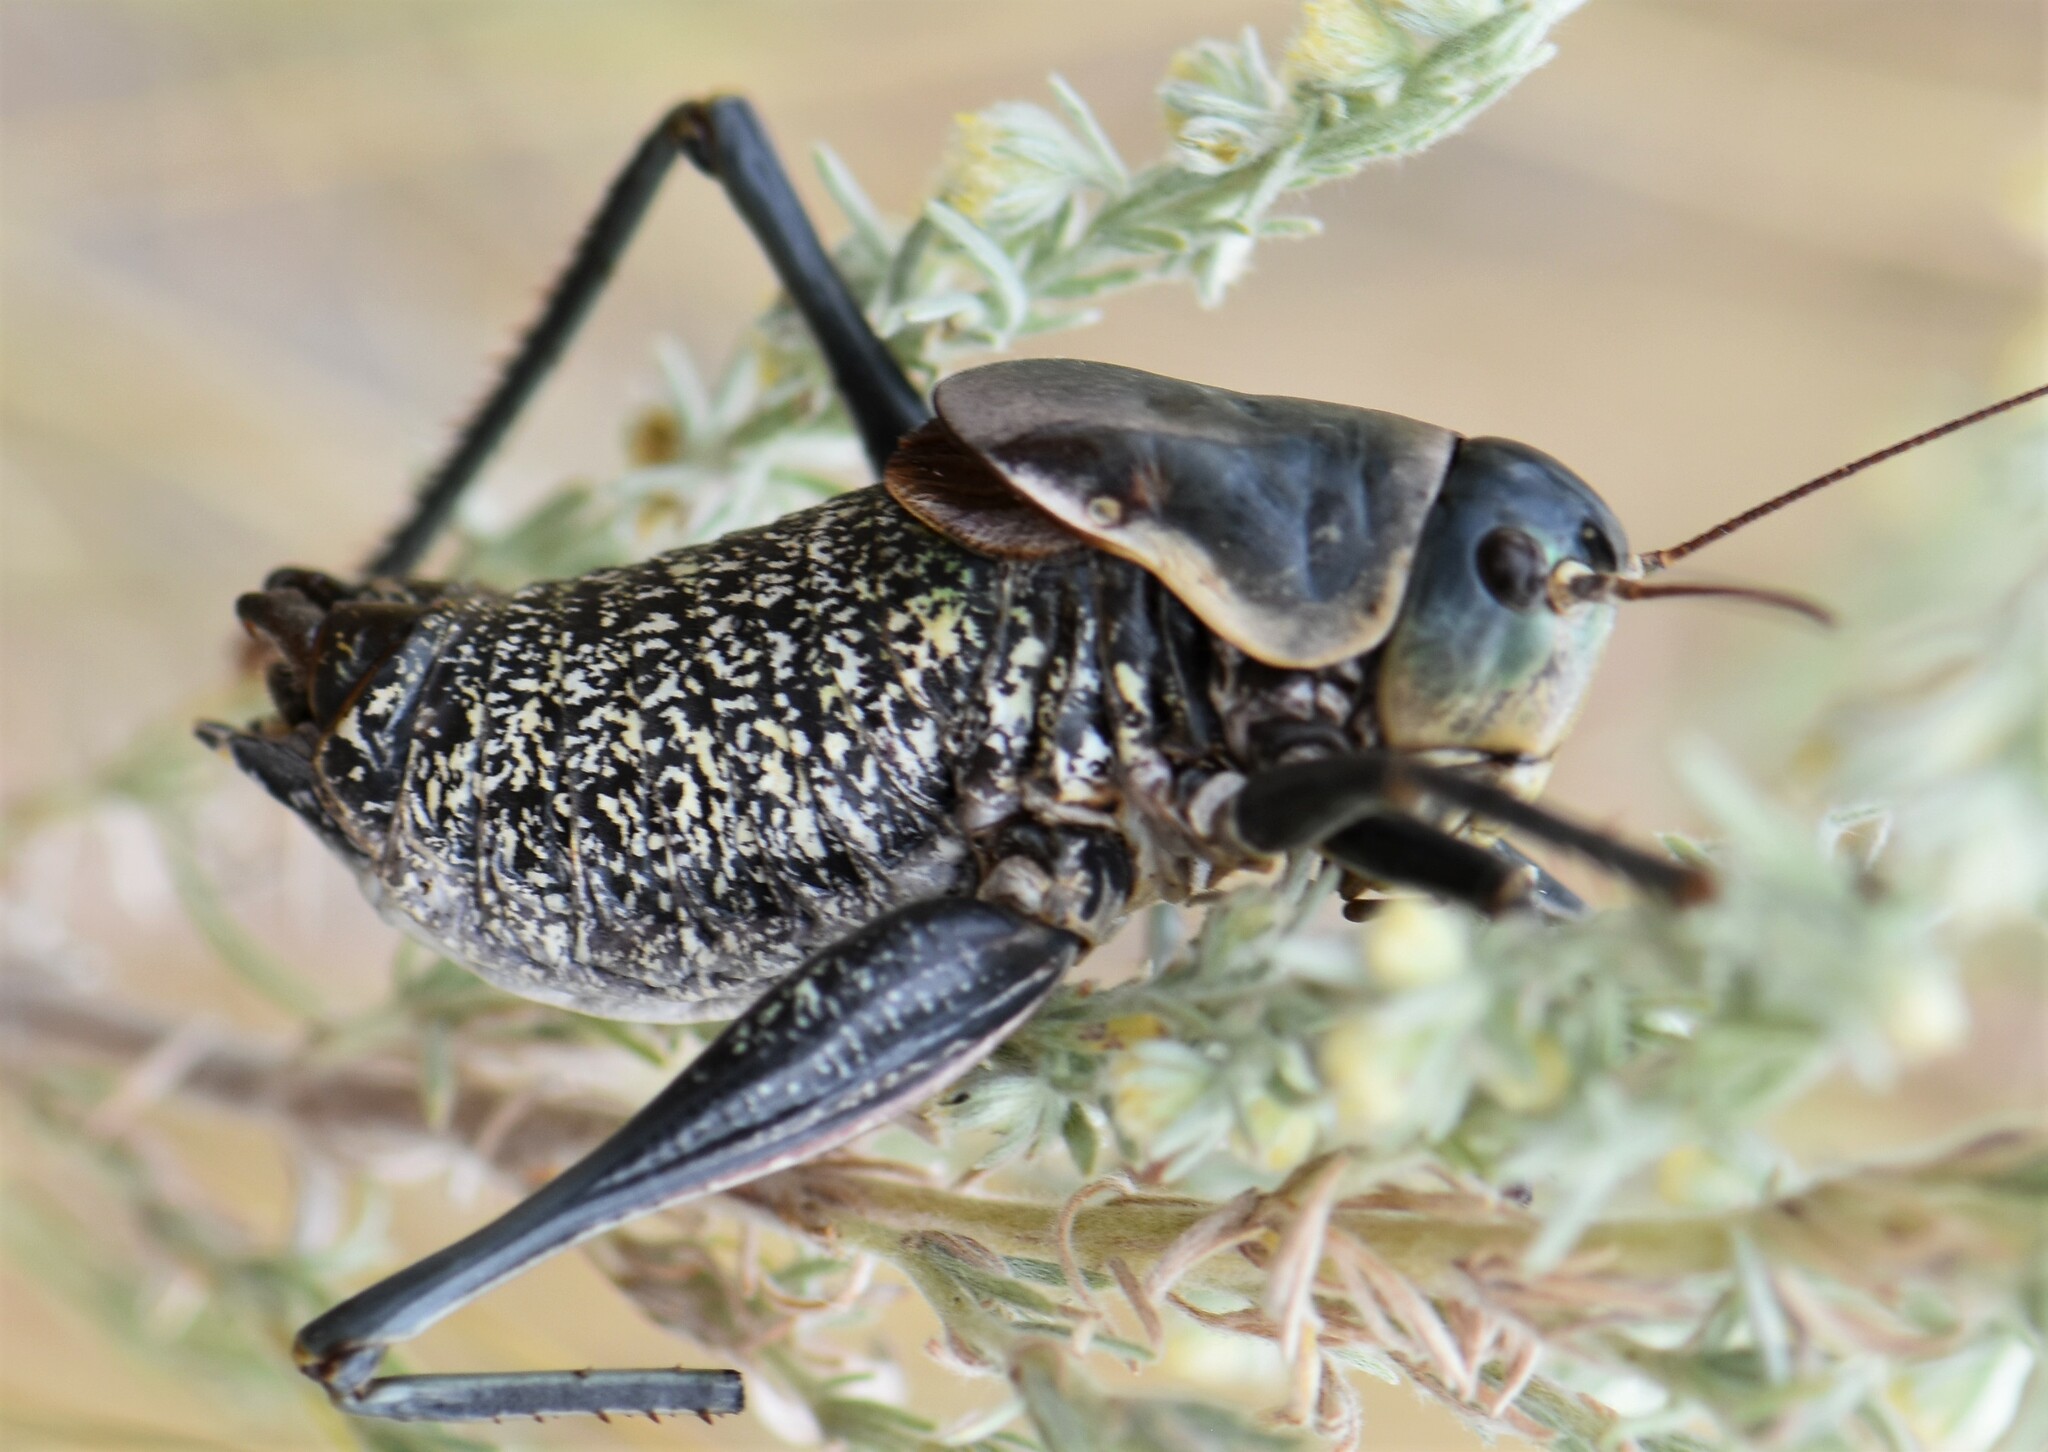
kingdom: Animalia
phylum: Arthropoda
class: Insecta
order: Orthoptera
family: Tettigoniidae
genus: Anabrus
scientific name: Anabrus simplex
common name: Mormon cricket
